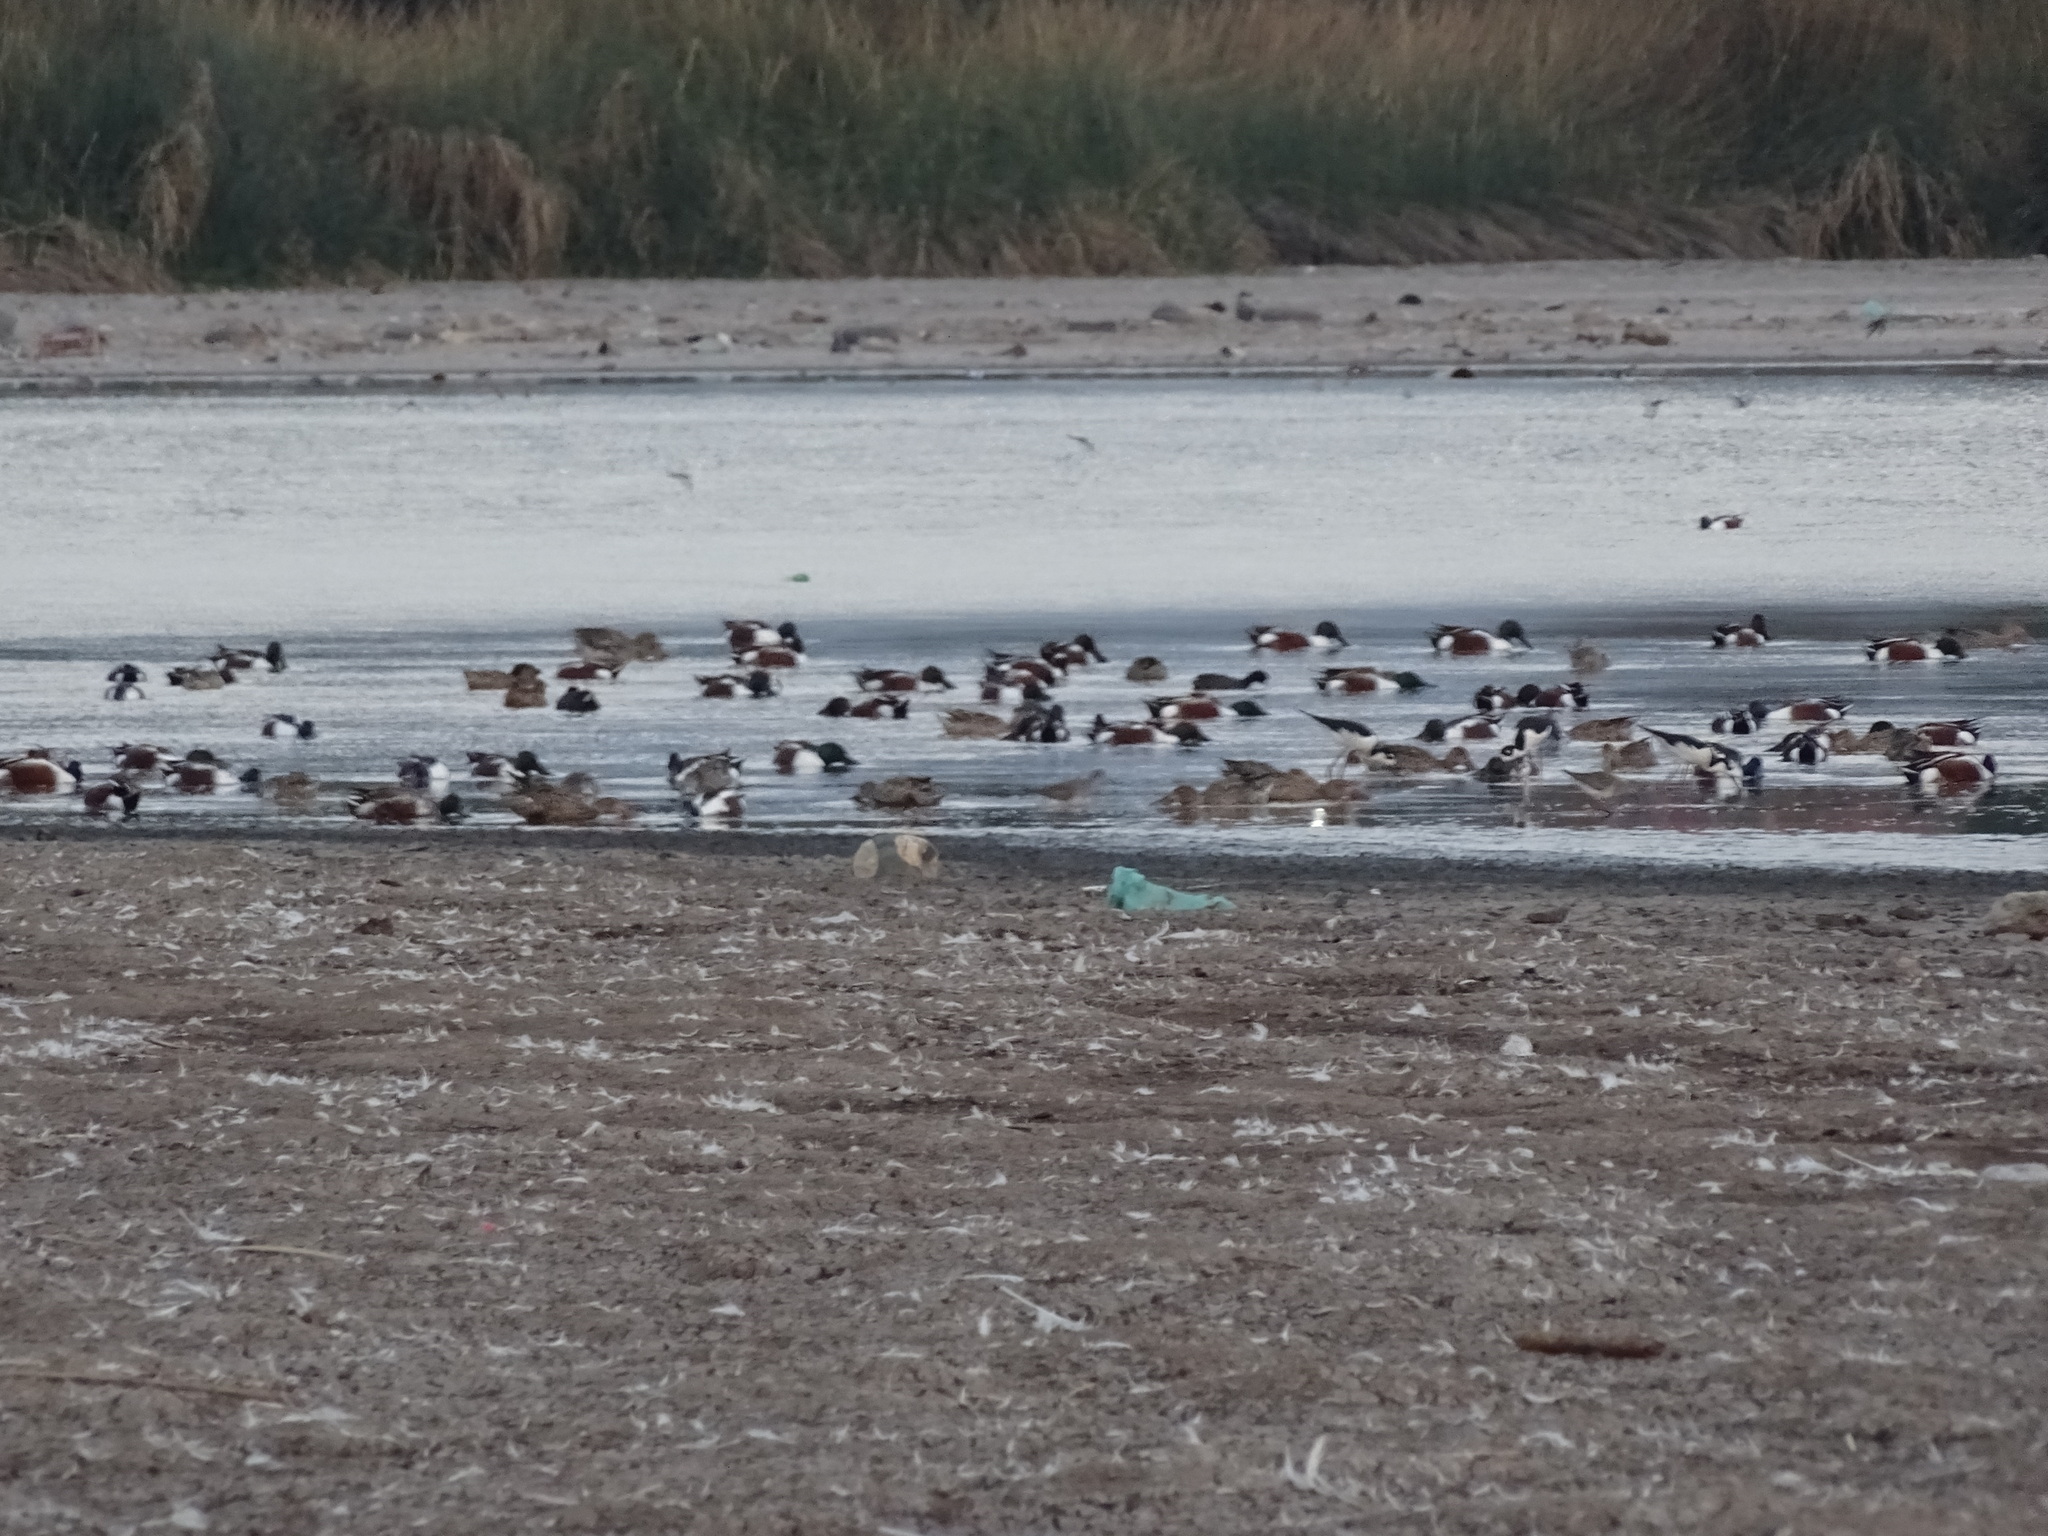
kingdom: Animalia
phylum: Chordata
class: Aves
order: Anseriformes
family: Anatidae
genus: Spatula
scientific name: Spatula clypeata
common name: Northern shoveler
